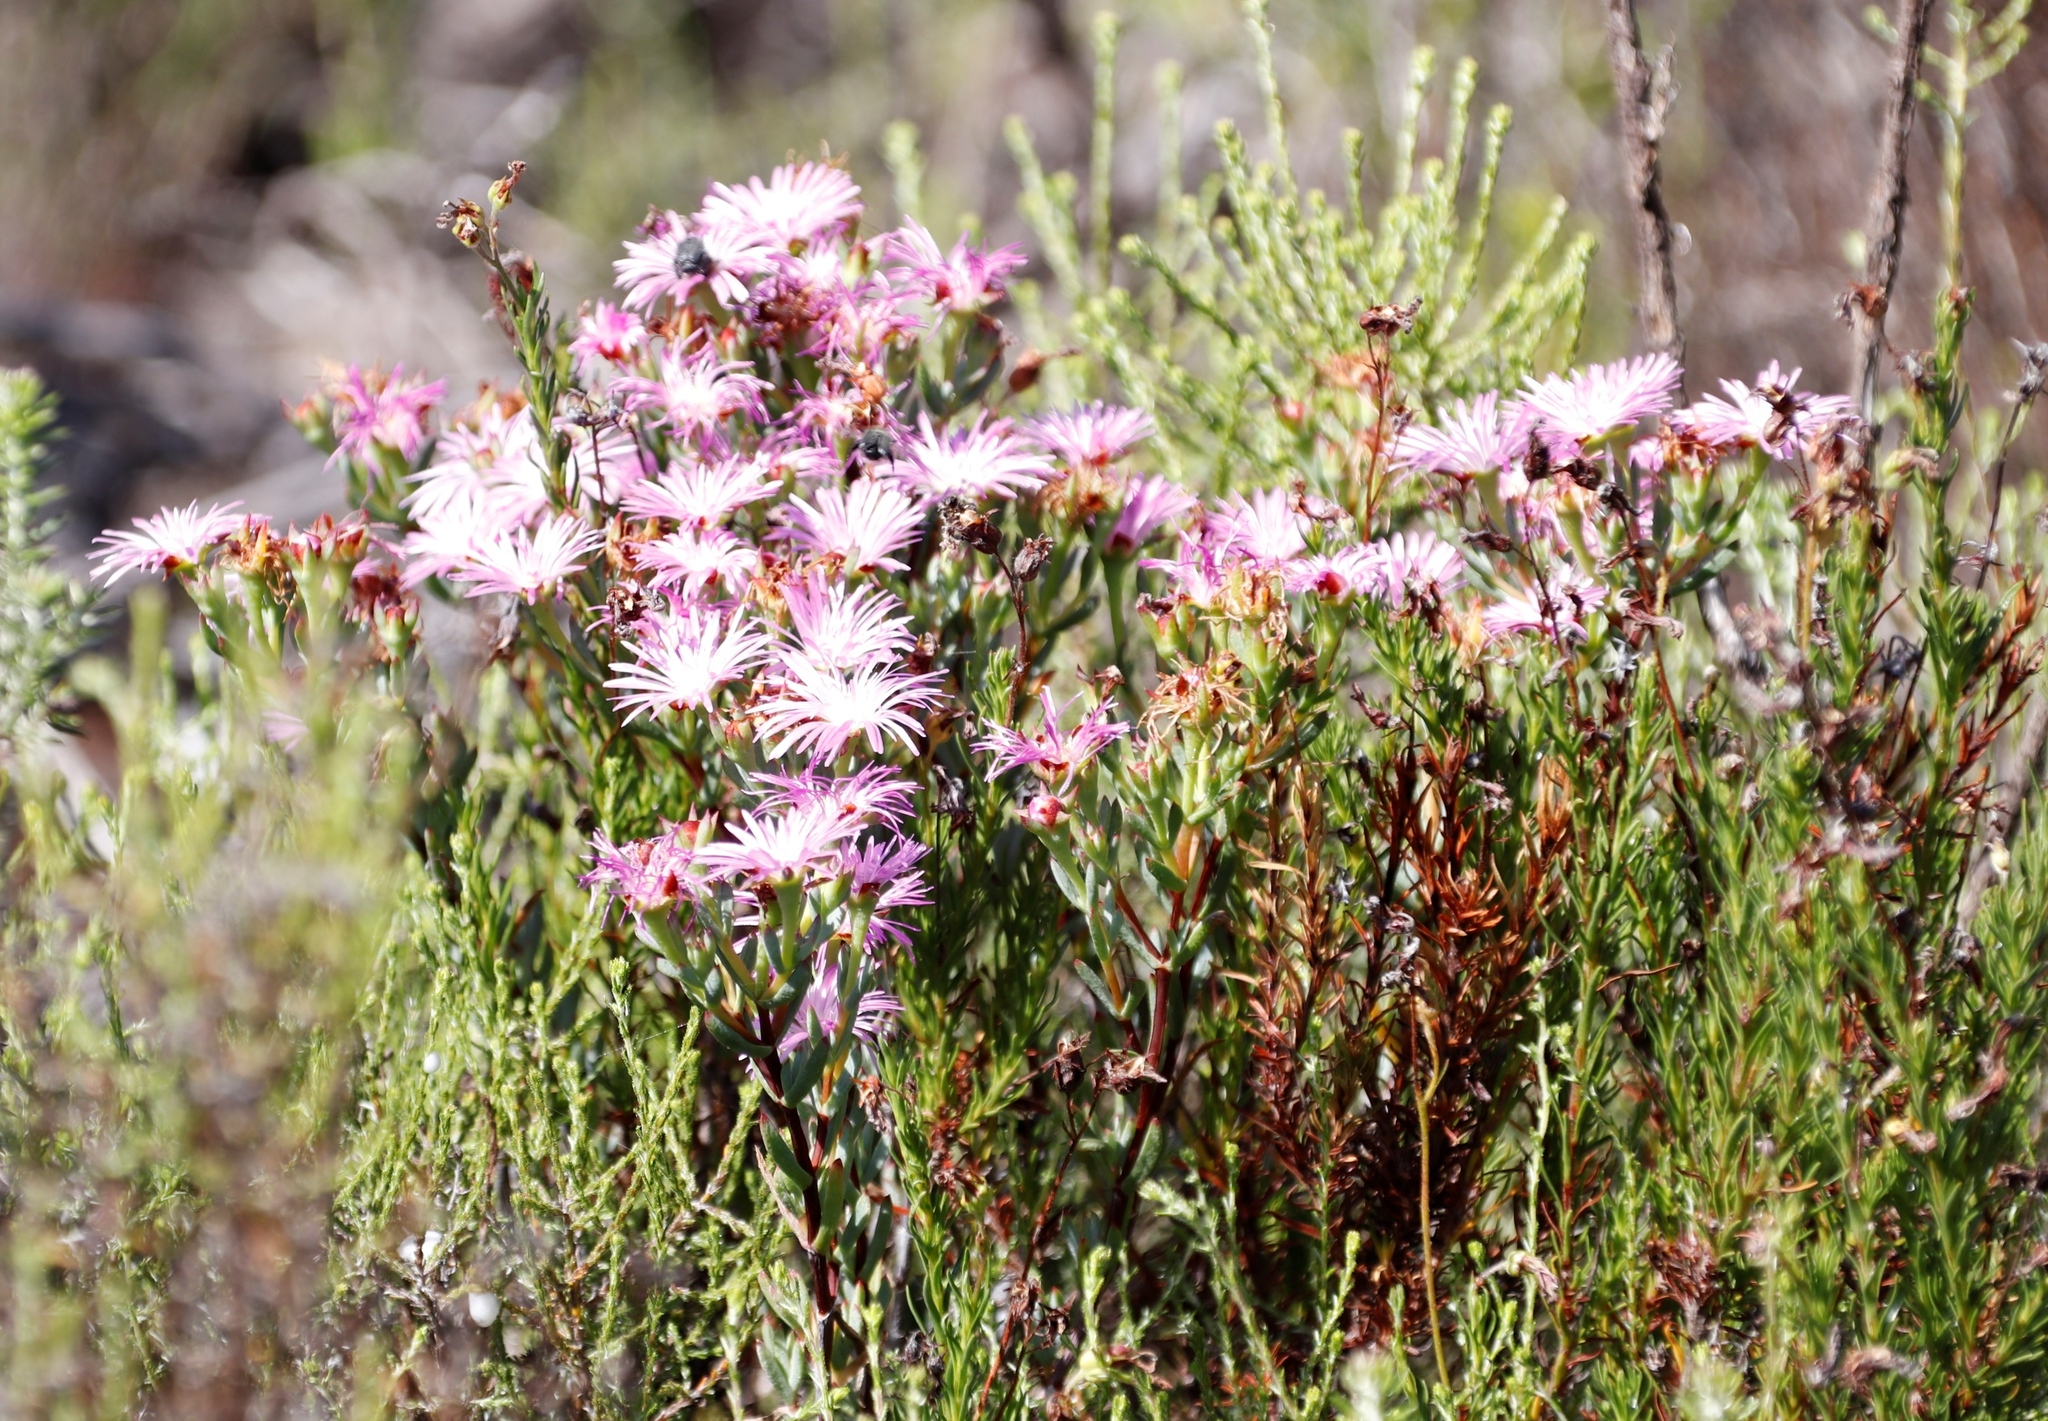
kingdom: Plantae
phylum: Tracheophyta
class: Magnoliopsida
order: Caryophyllales
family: Aizoaceae
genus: Lampranthus
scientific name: Lampranthus emarginatus
